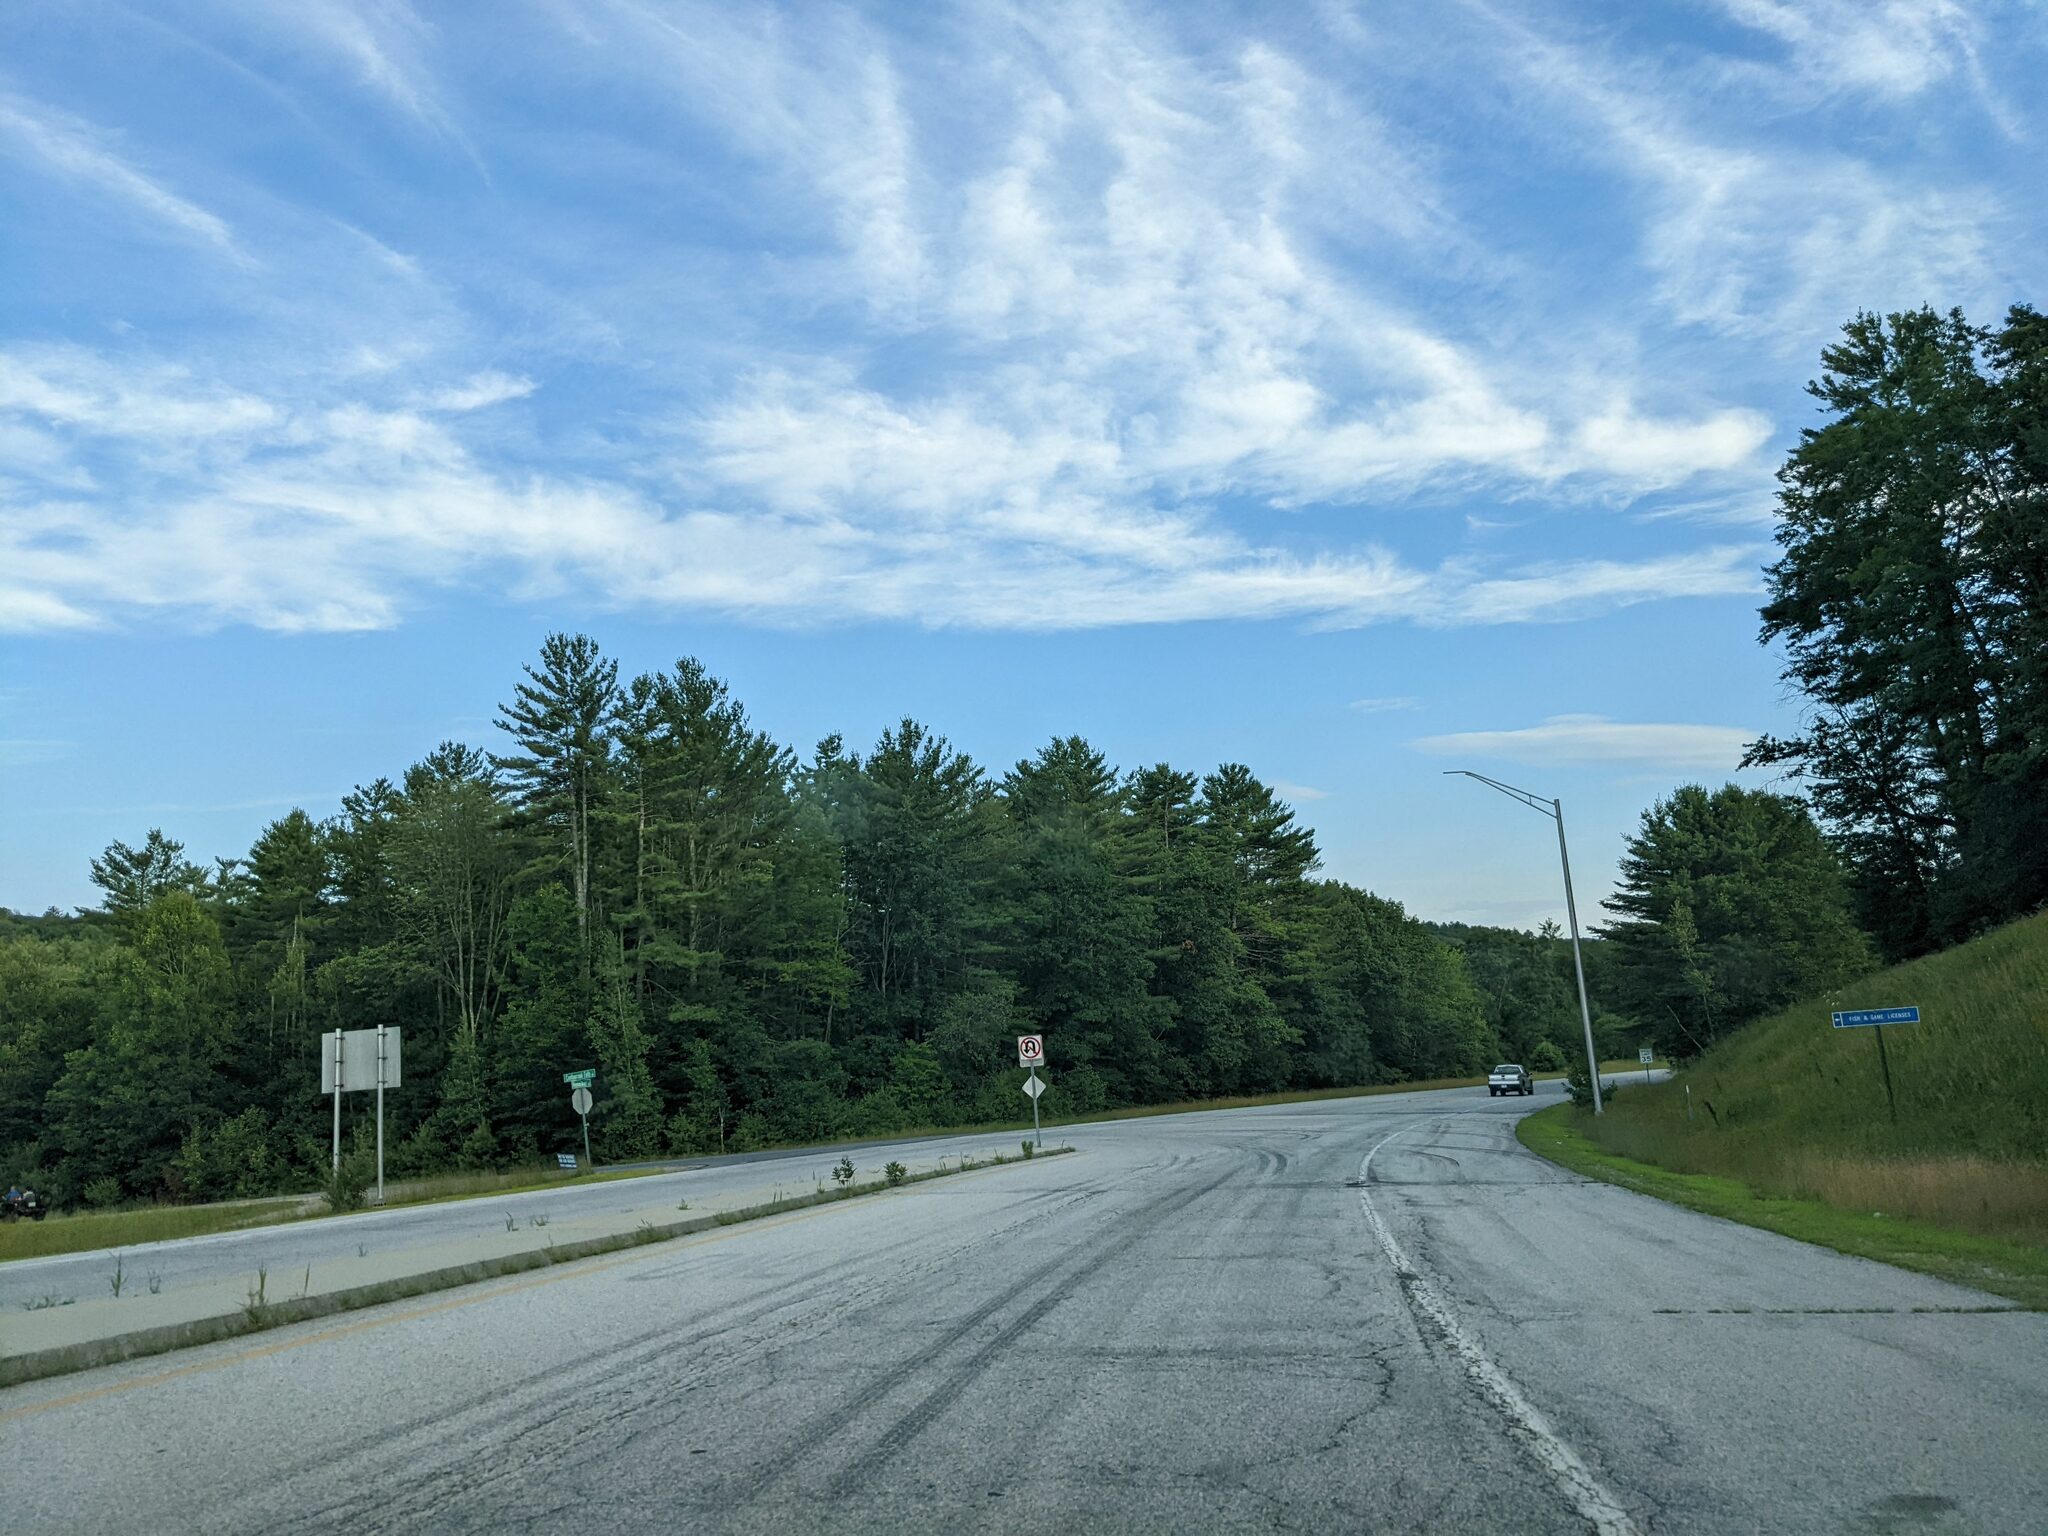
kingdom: Plantae
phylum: Tracheophyta
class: Pinopsida
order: Pinales
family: Pinaceae
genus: Pinus
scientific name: Pinus strobus
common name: Weymouth pine
